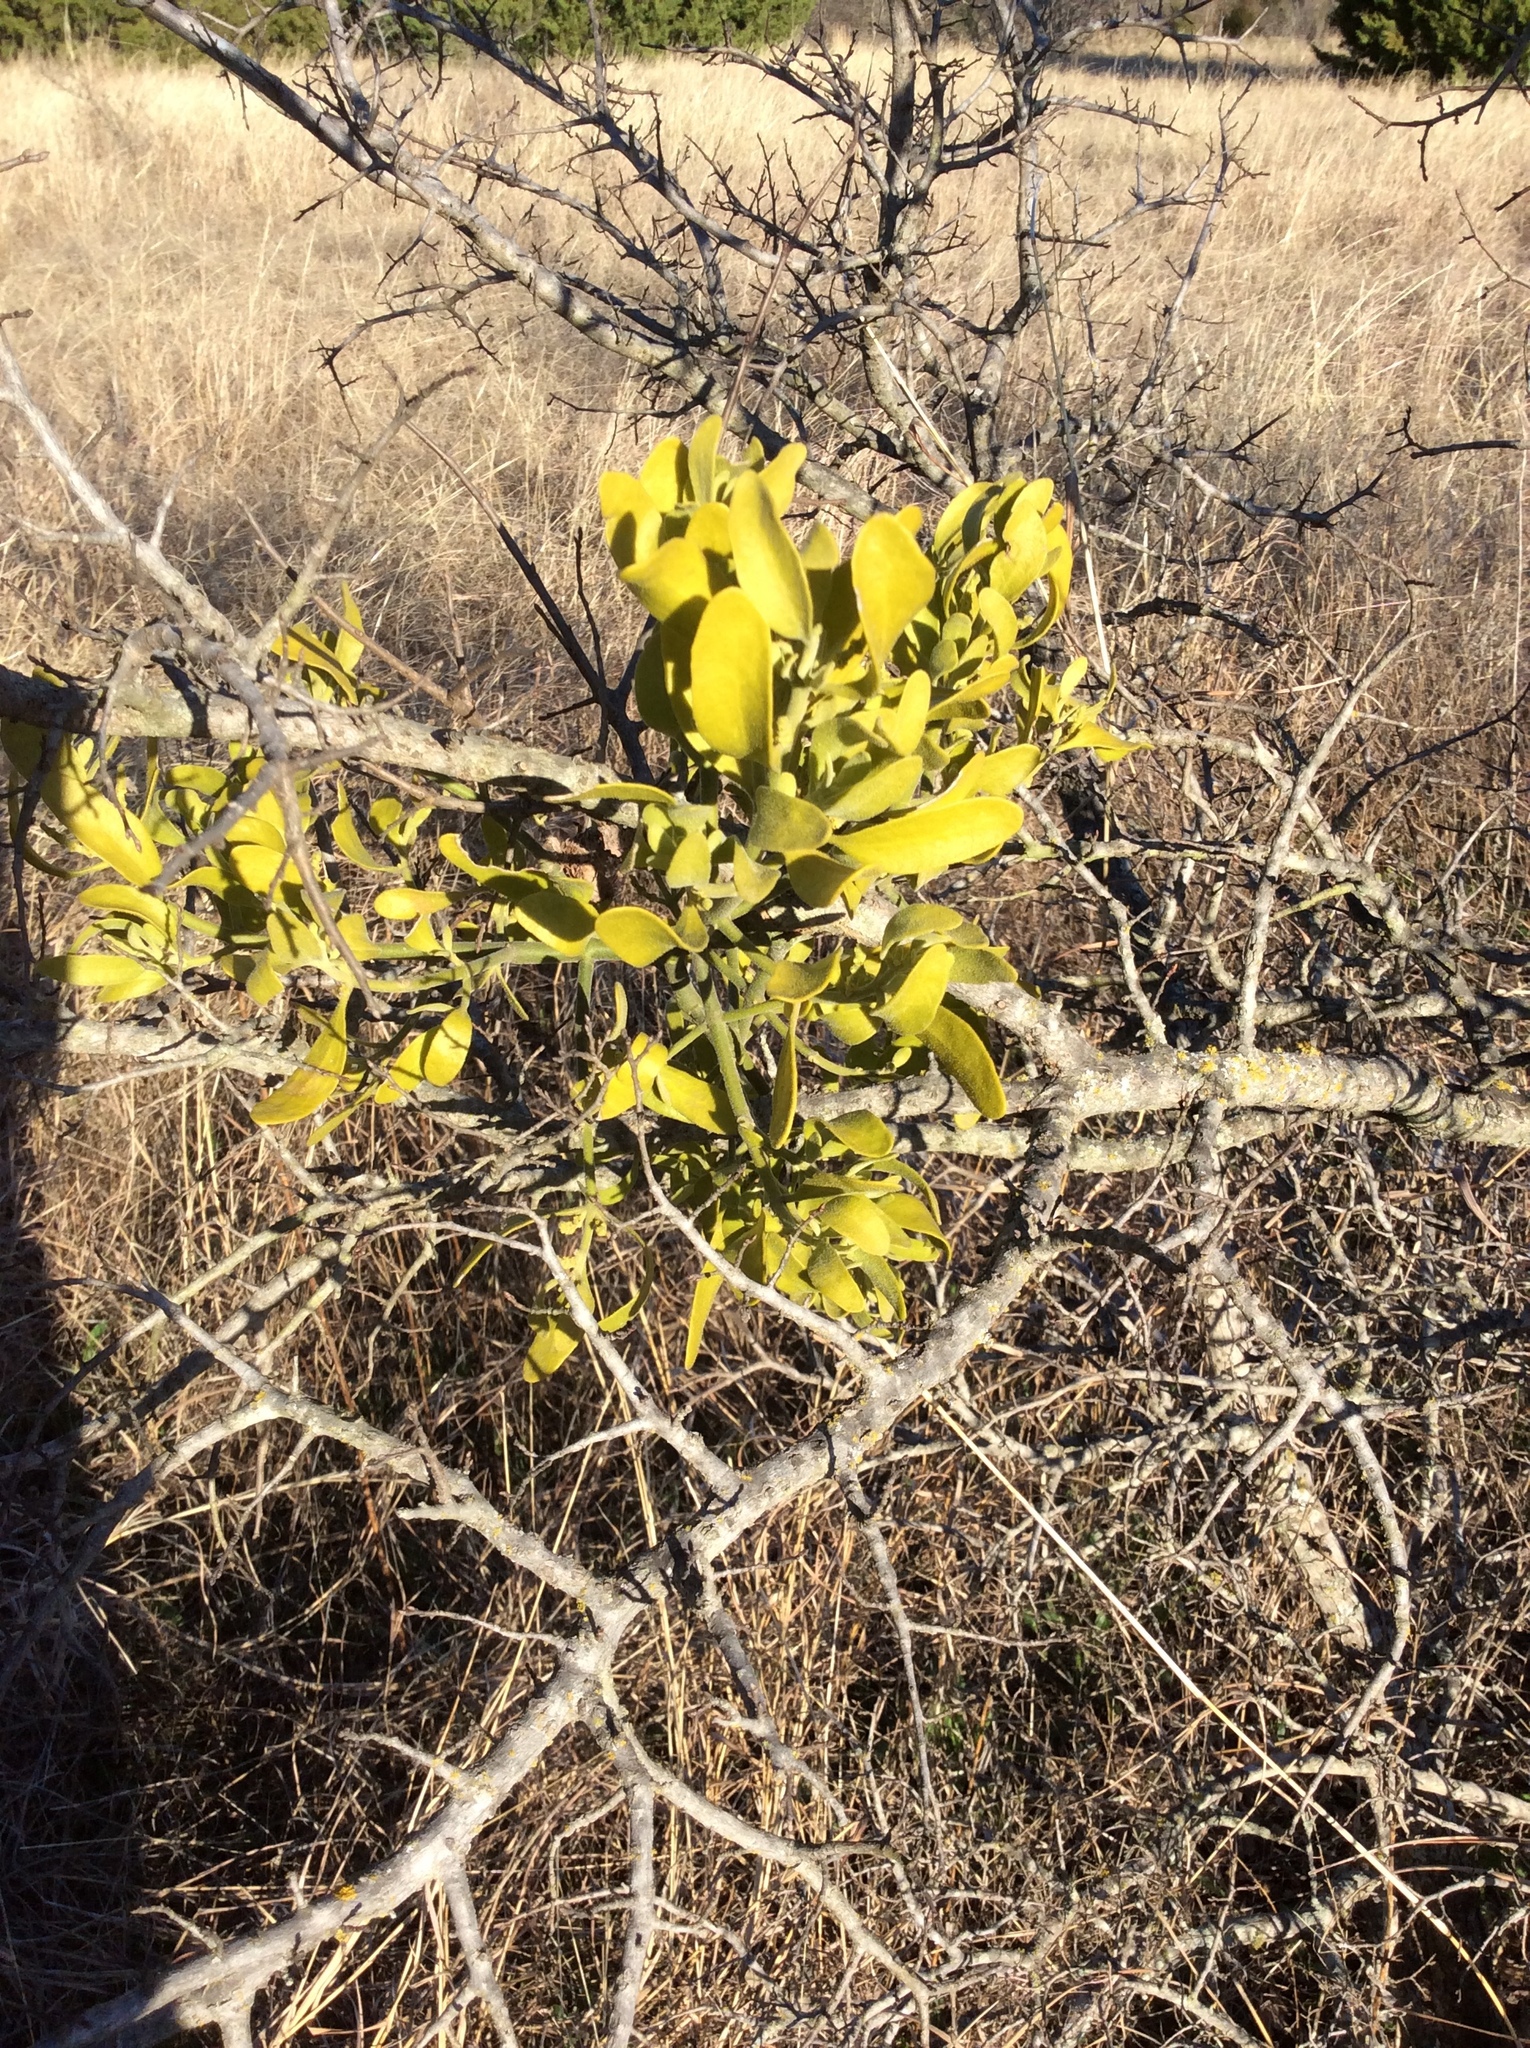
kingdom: Plantae
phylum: Tracheophyta
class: Magnoliopsida
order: Santalales
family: Viscaceae
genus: Phoradendron
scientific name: Phoradendron leucarpum
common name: Pacific mistletoe
